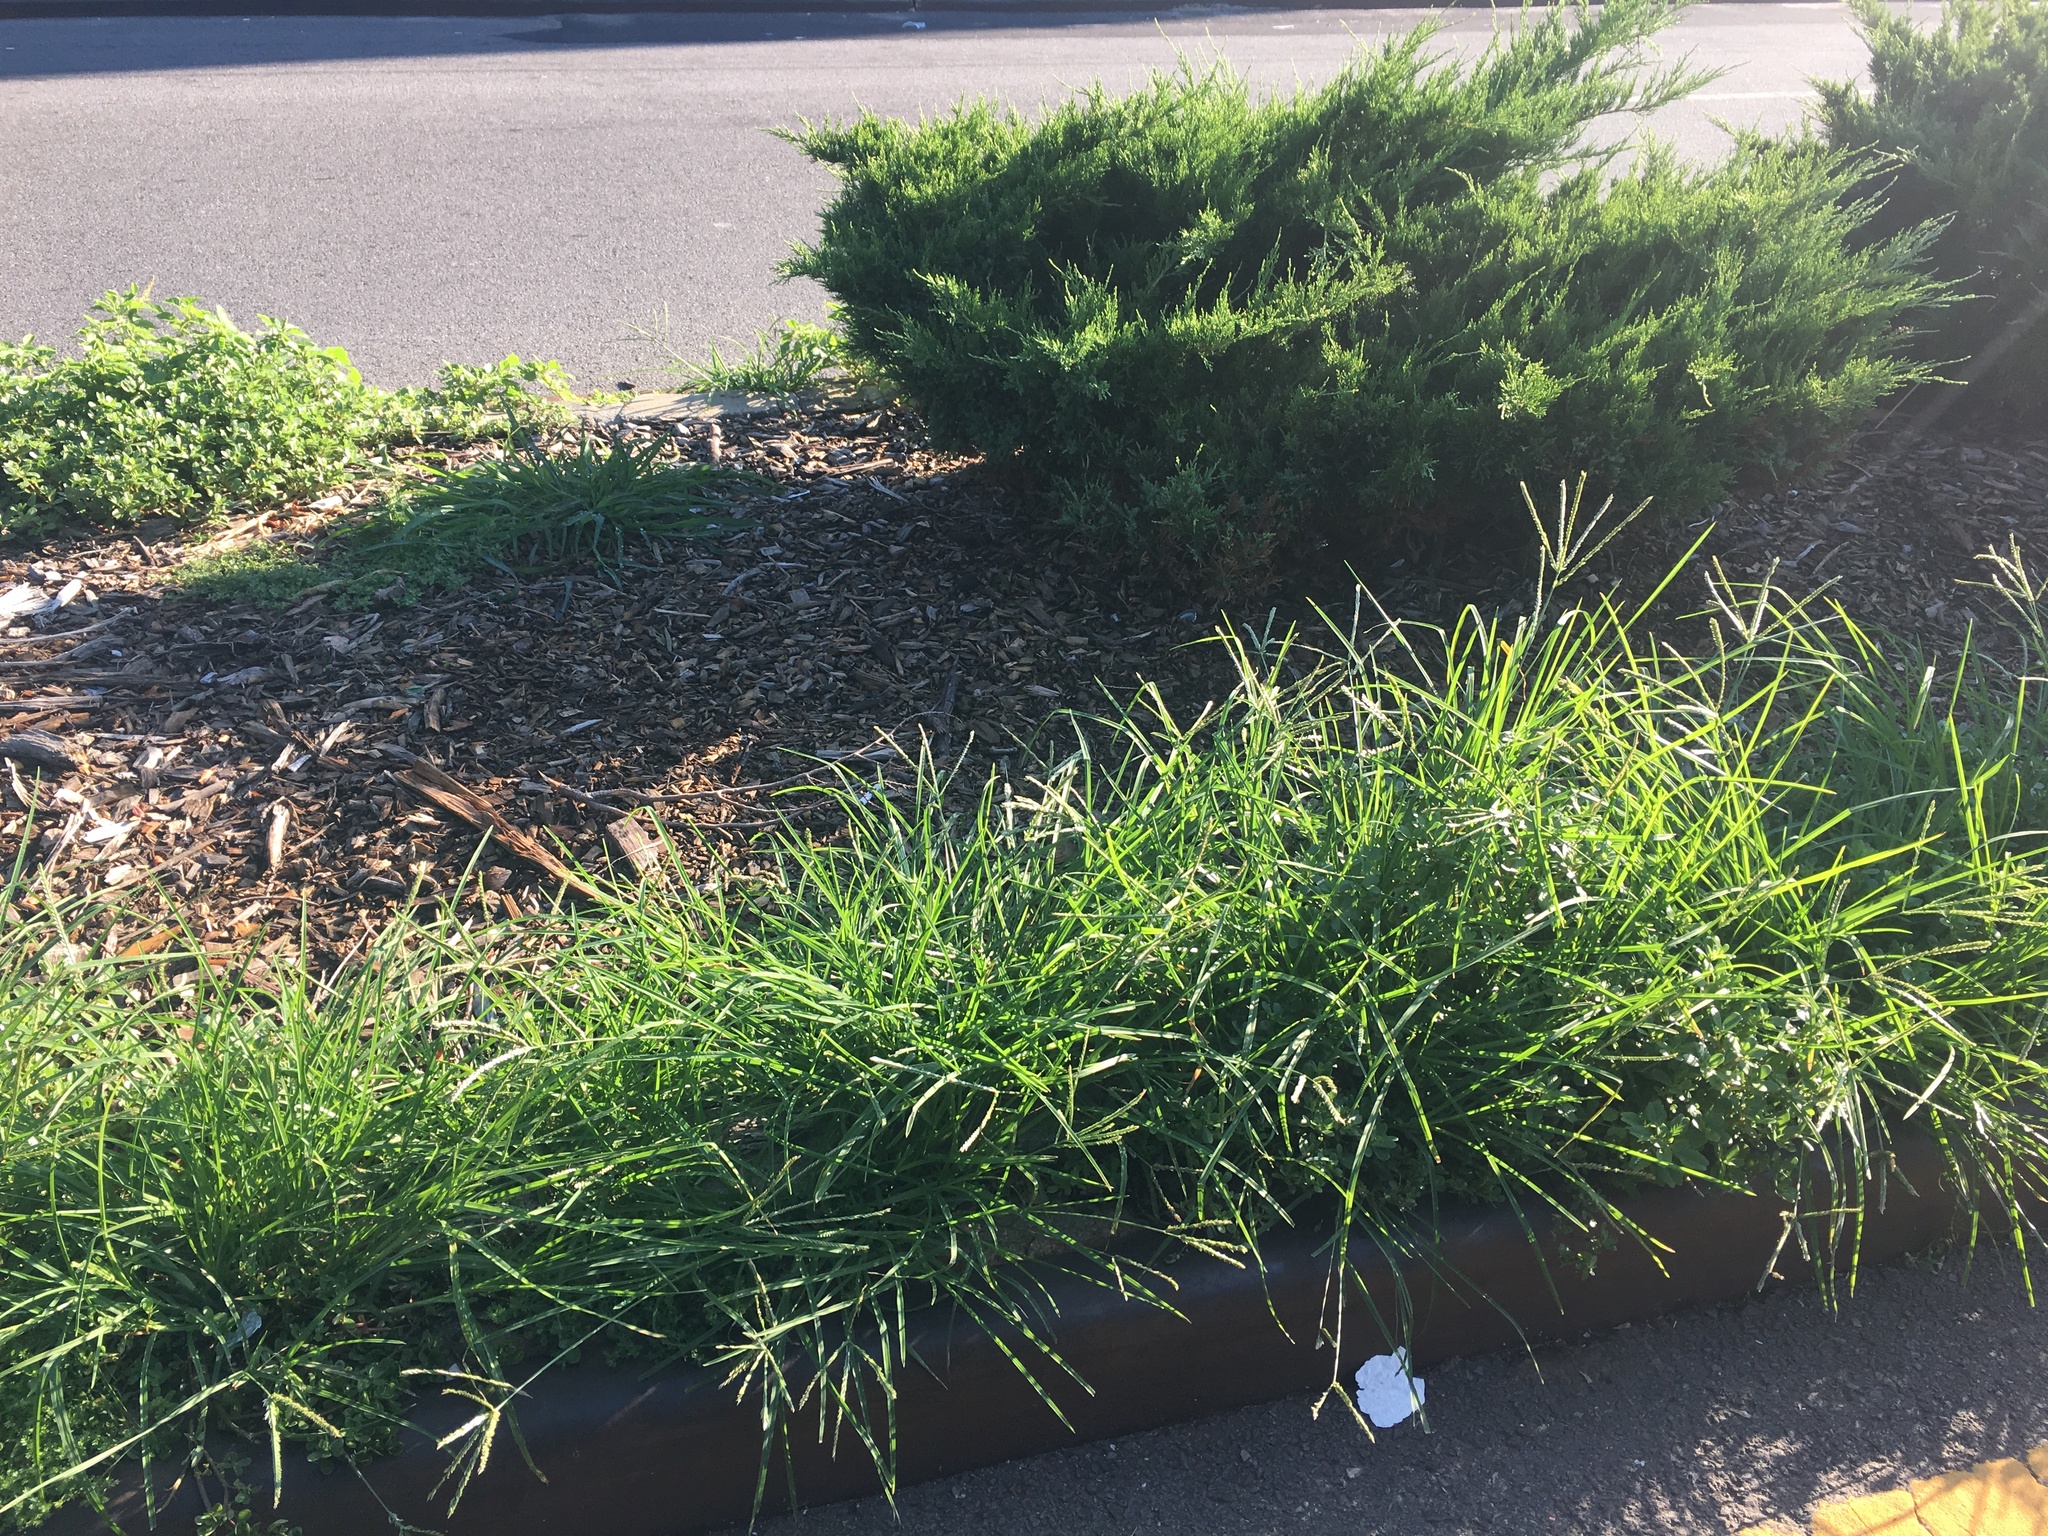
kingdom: Plantae
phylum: Tracheophyta
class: Liliopsida
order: Poales
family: Poaceae
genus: Eleusine
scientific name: Eleusine indica
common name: Yard-grass
